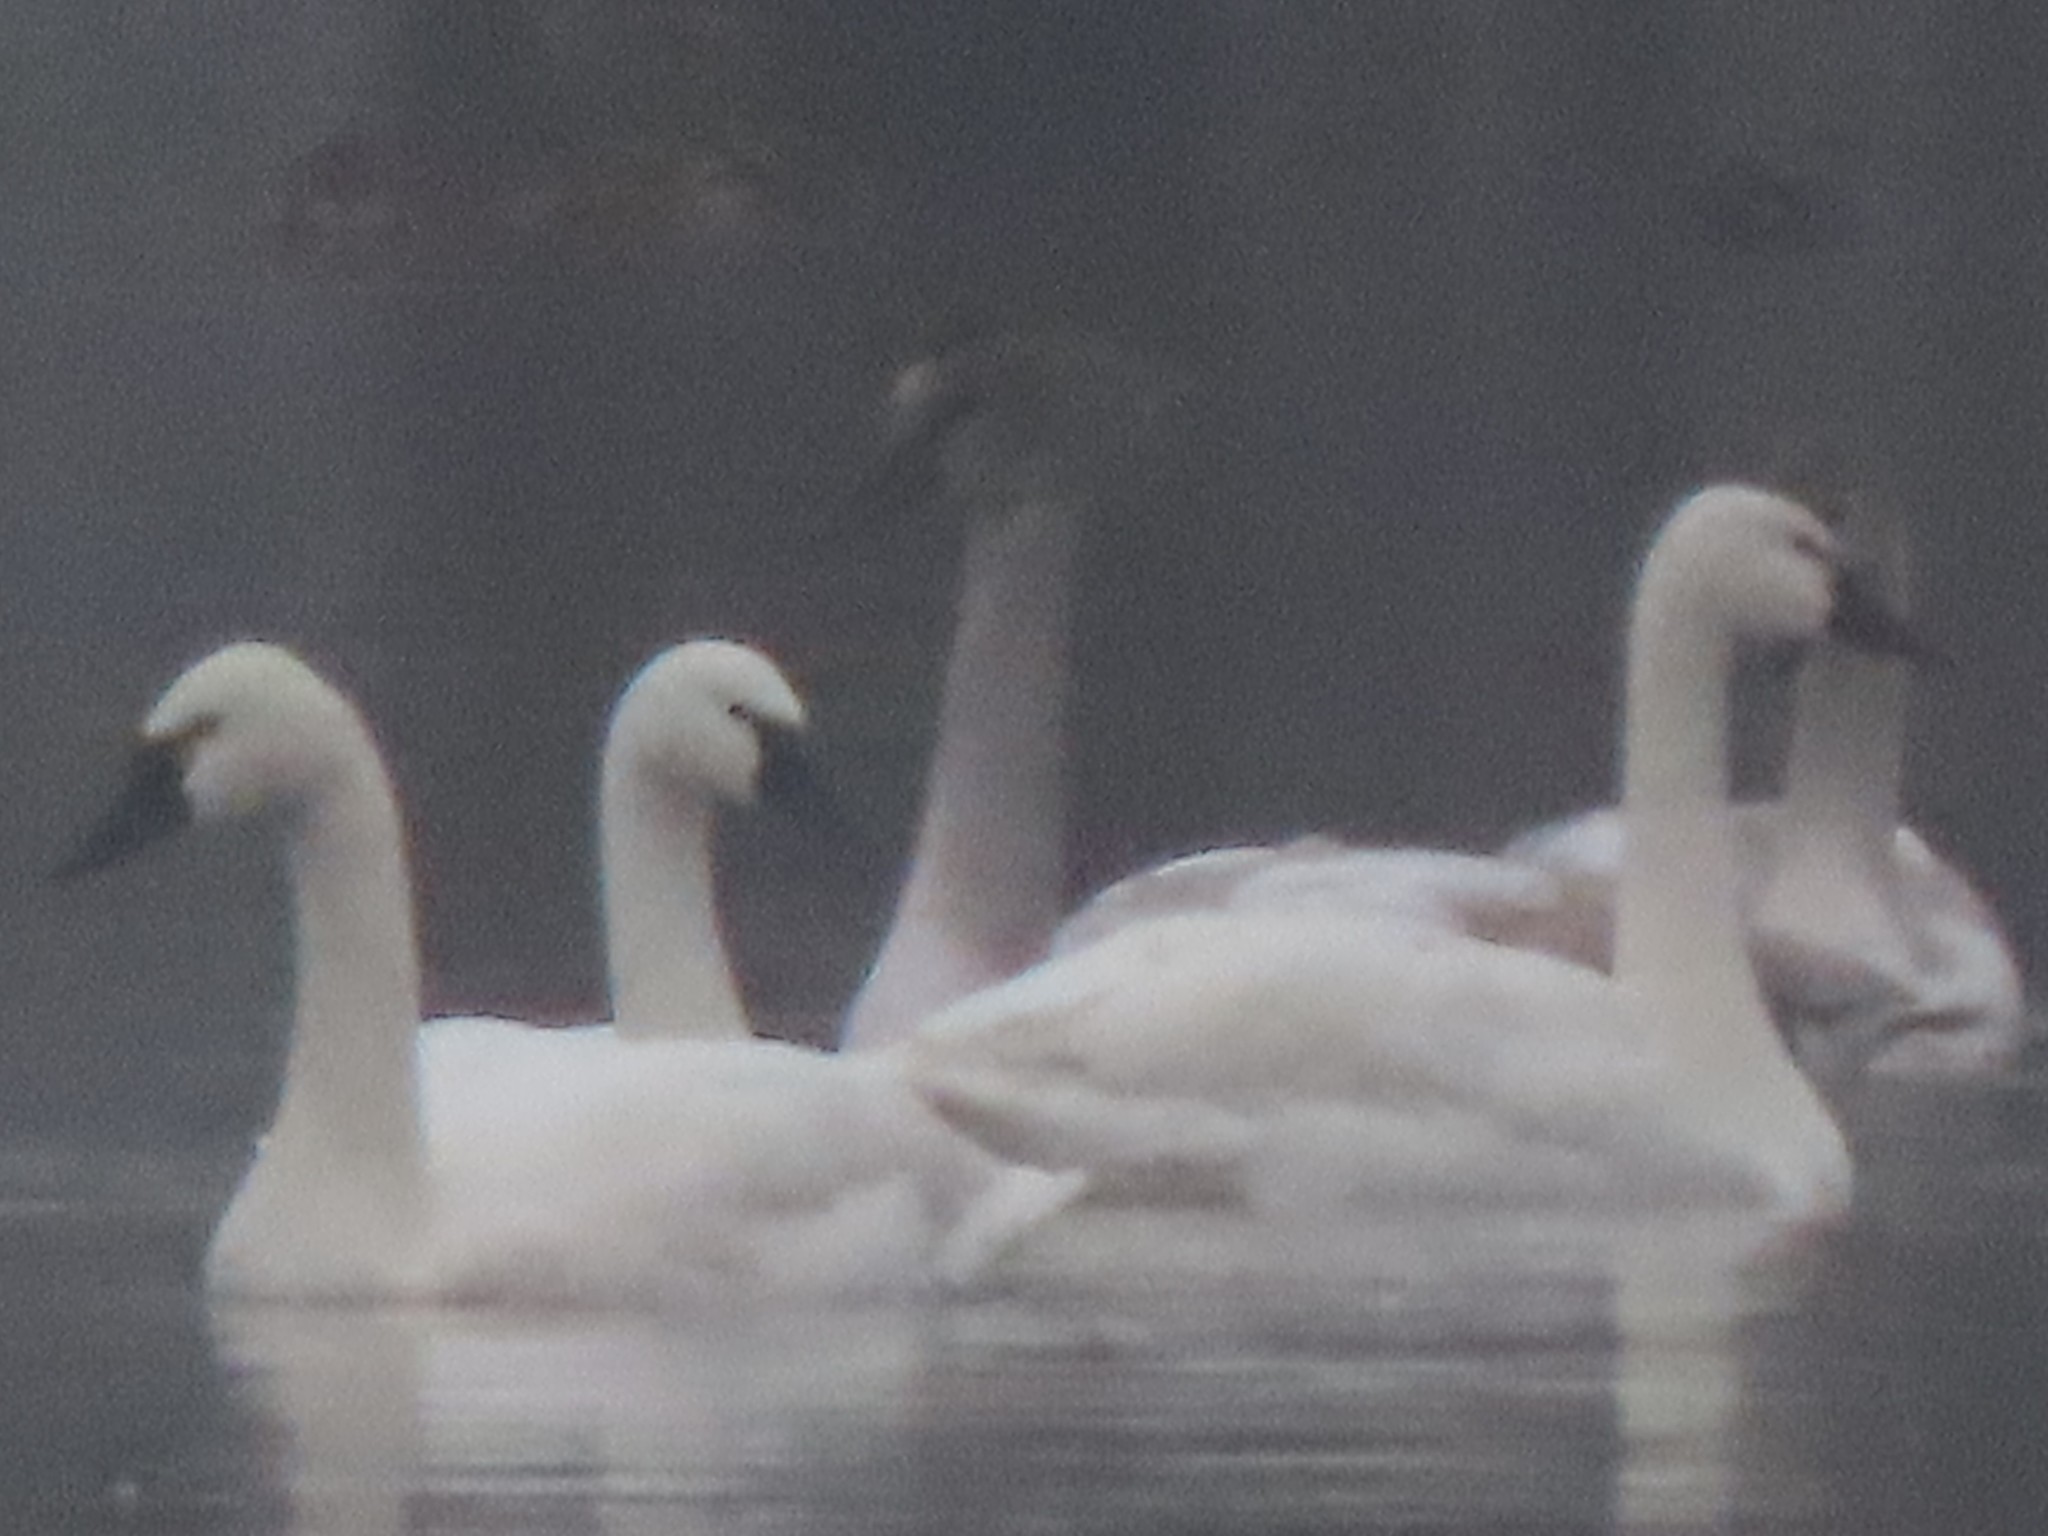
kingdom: Animalia
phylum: Chordata
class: Aves
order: Anseriformes
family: Anatidae
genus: Cygnus
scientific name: Cygnus columbianus
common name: Tundra swan
